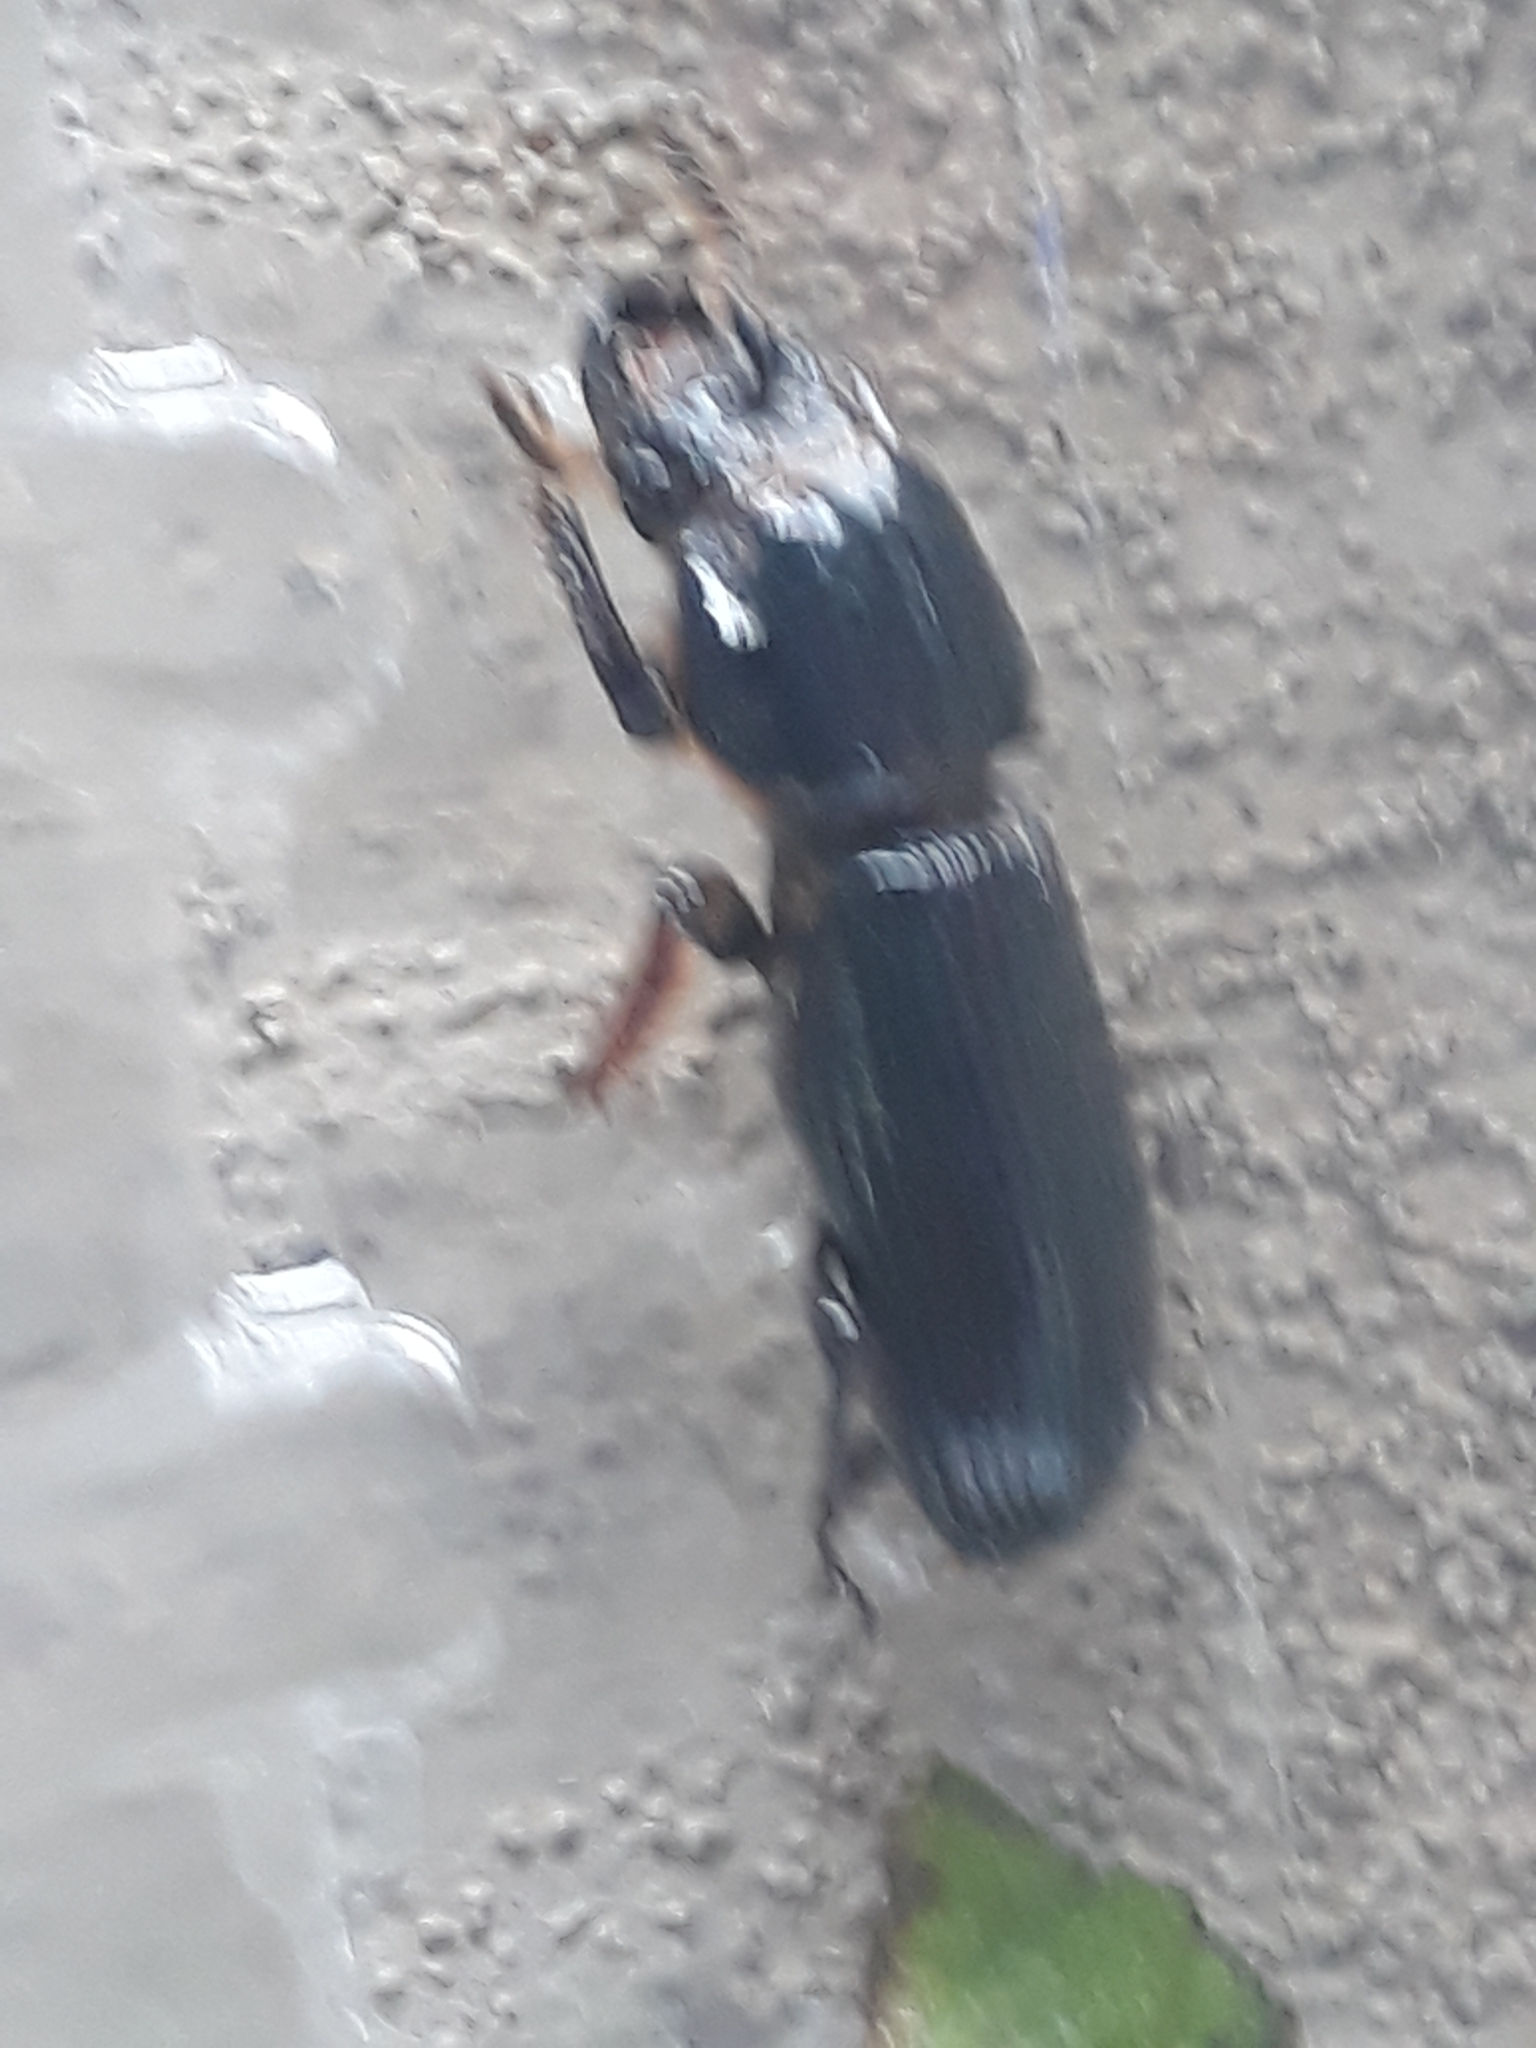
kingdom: Animalia
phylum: Arthropoda
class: Insecta
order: Coleoptera
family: Passalidae
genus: Odontotaenius
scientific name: Odontotaenius disjunctus
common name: Patent leather beetle
